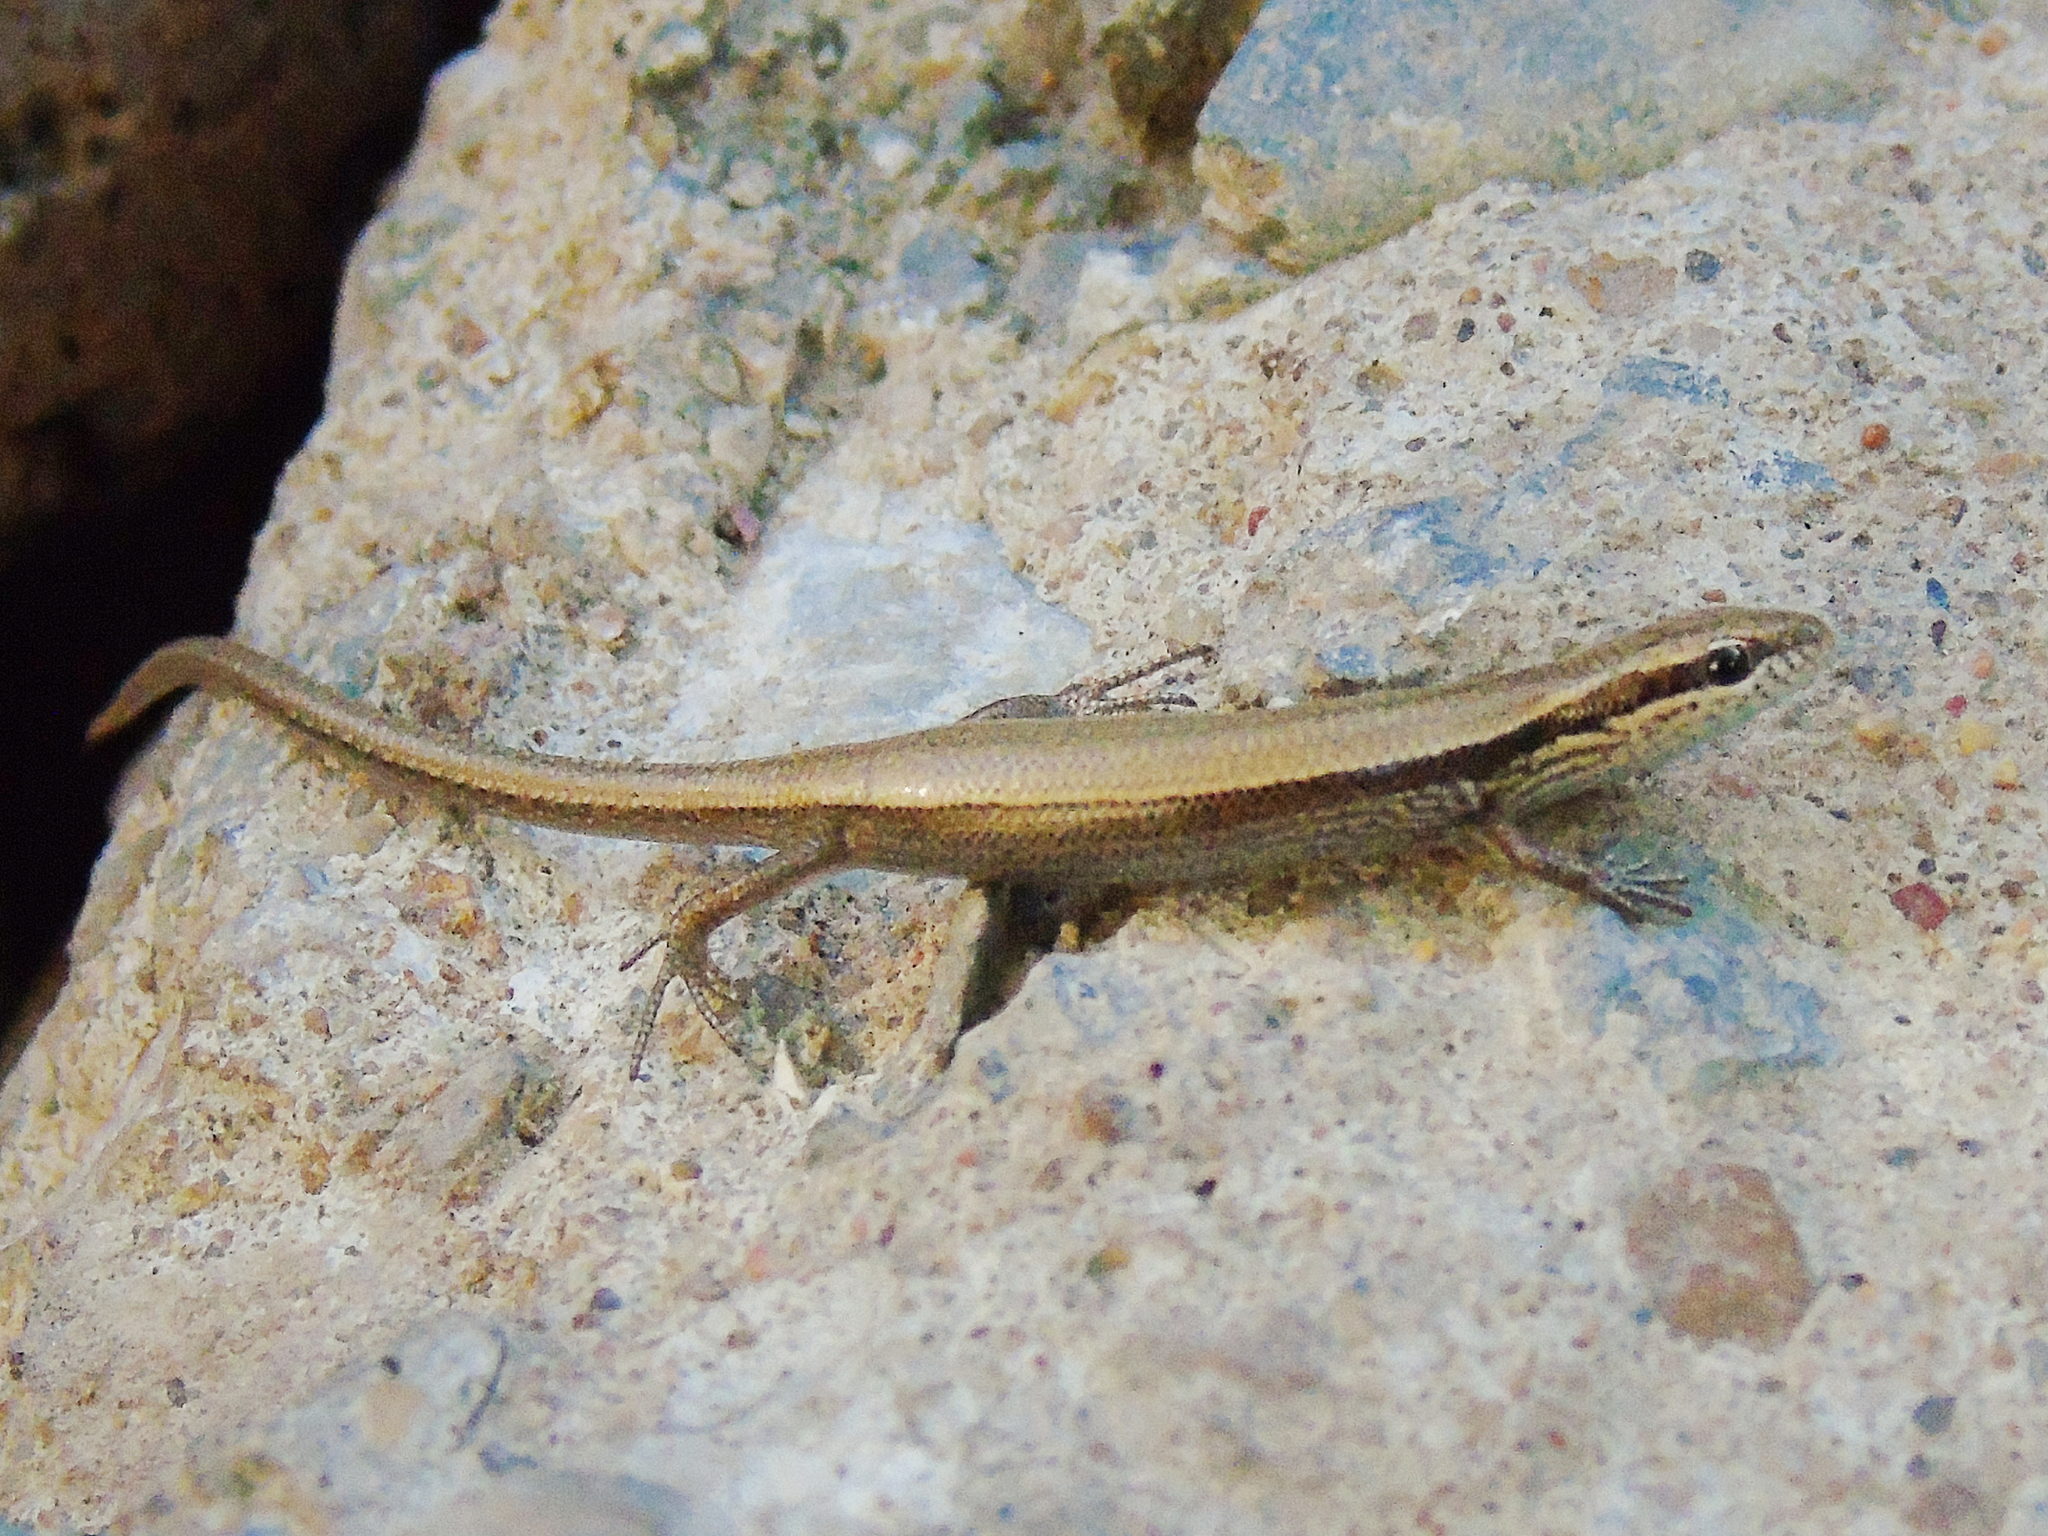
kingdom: Animalia
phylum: Chordata
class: Squamata
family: Scincidae
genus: Ablepharus
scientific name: Ablepharus deserti
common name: Desert lidless skink
